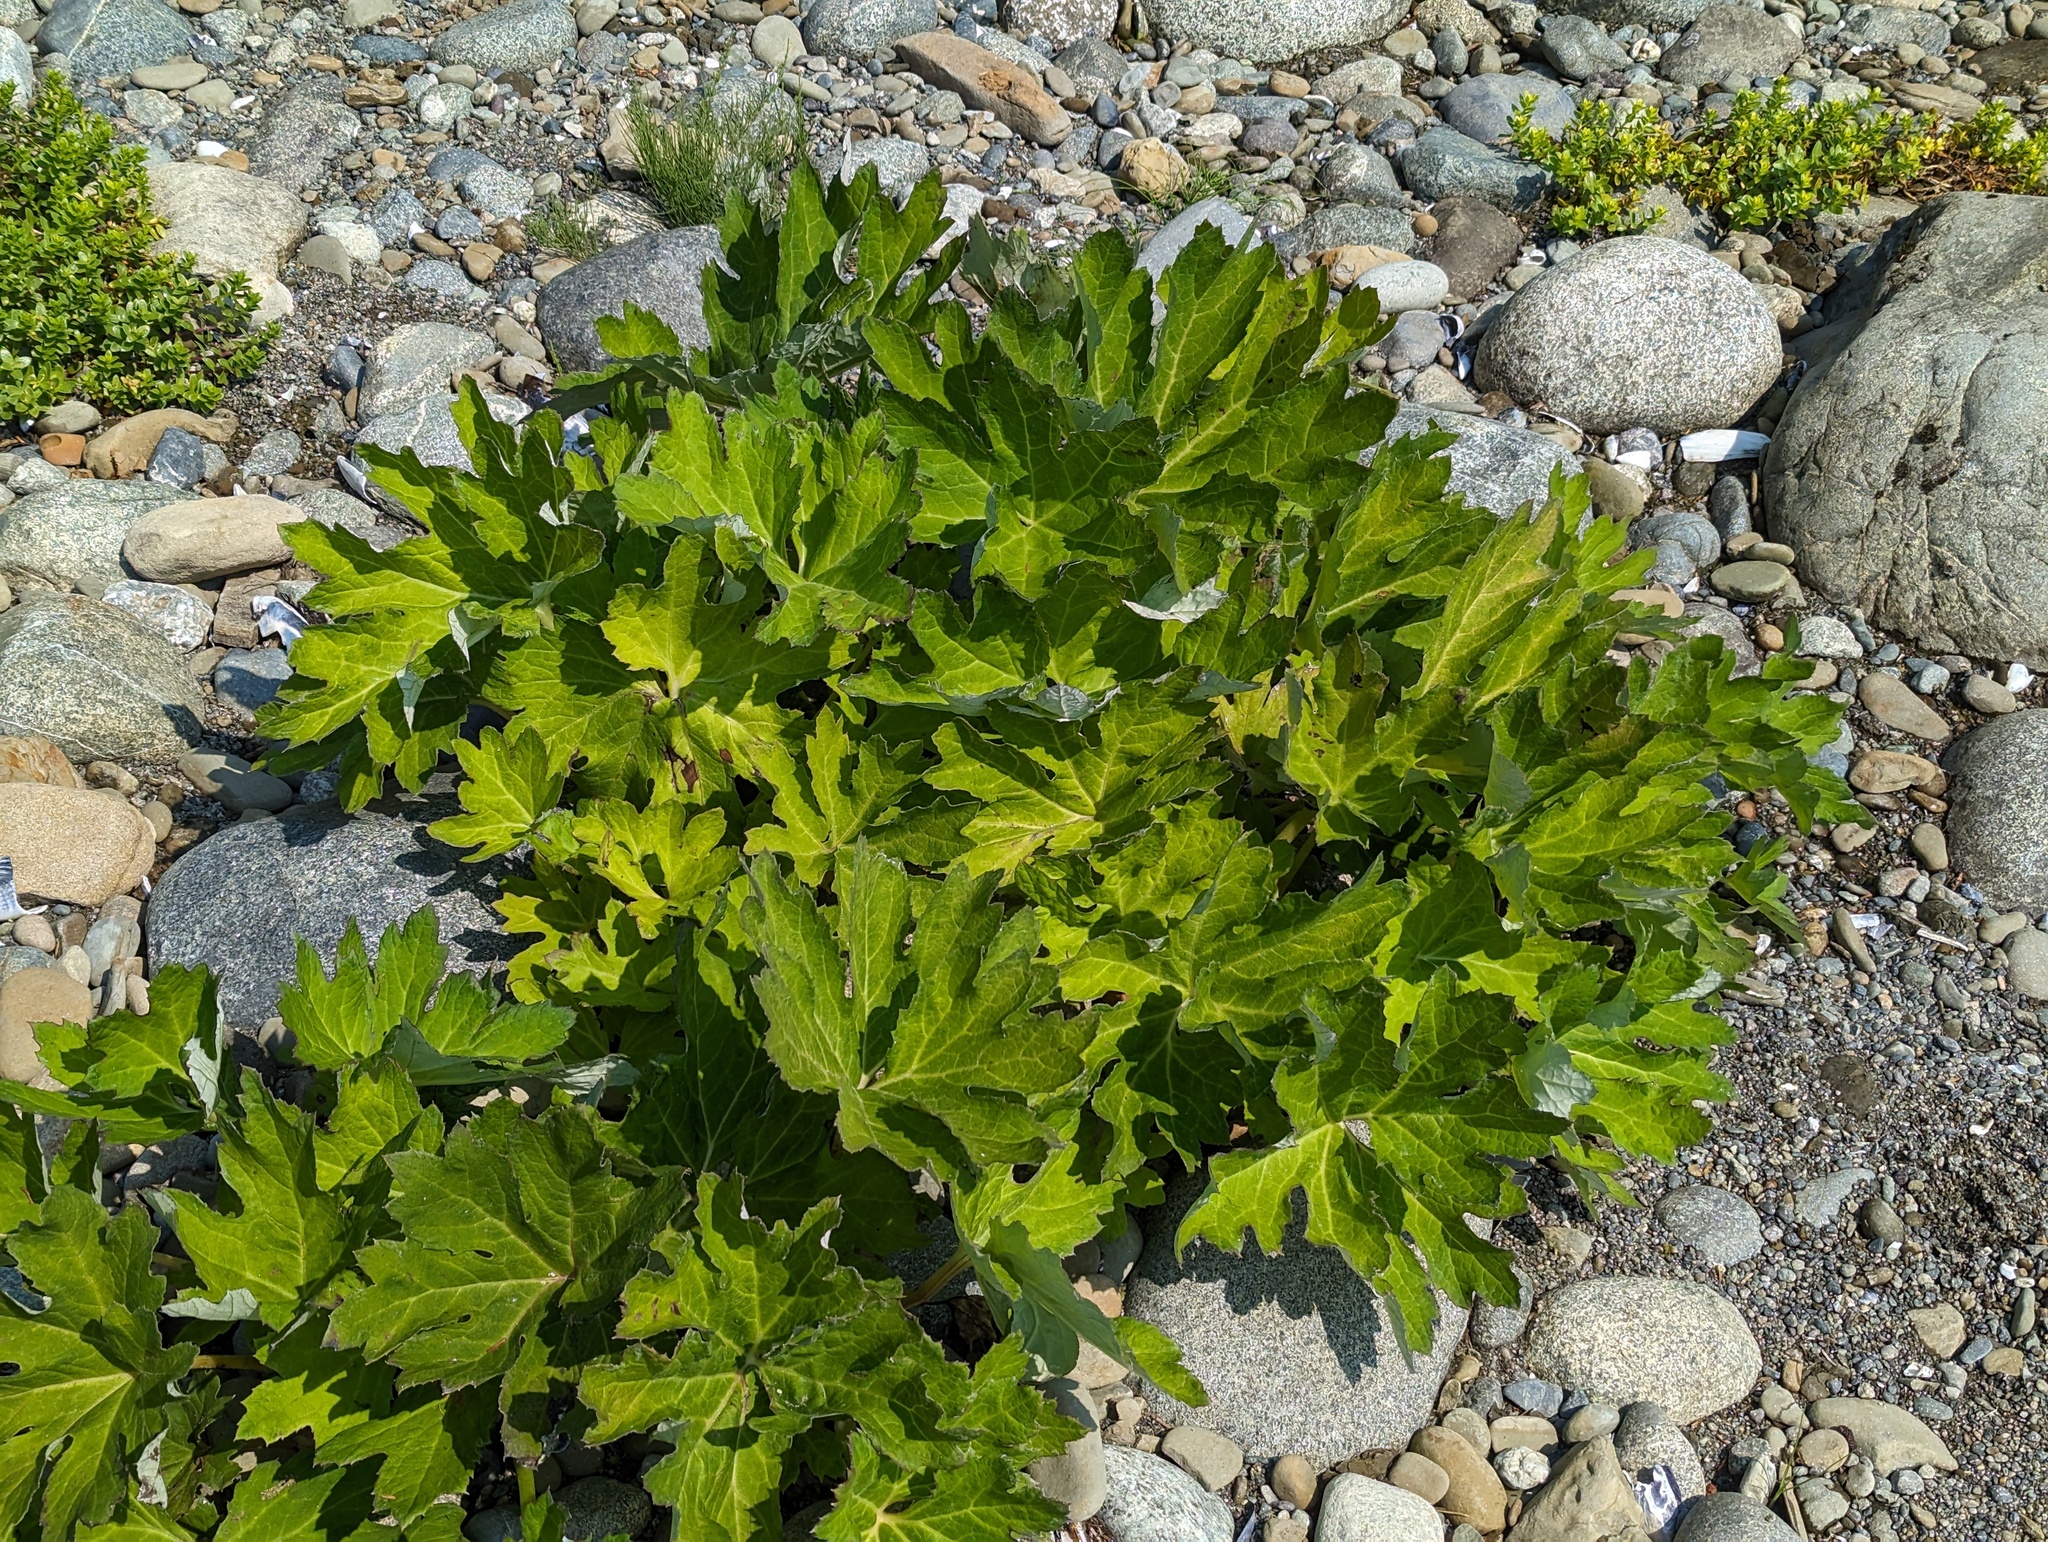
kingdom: Plantae
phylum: Tracheophyta
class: Magnoliopsida
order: Asterales
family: Asteraceae
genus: Petasites
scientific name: Petasites frigidus
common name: Arctic butterbur
